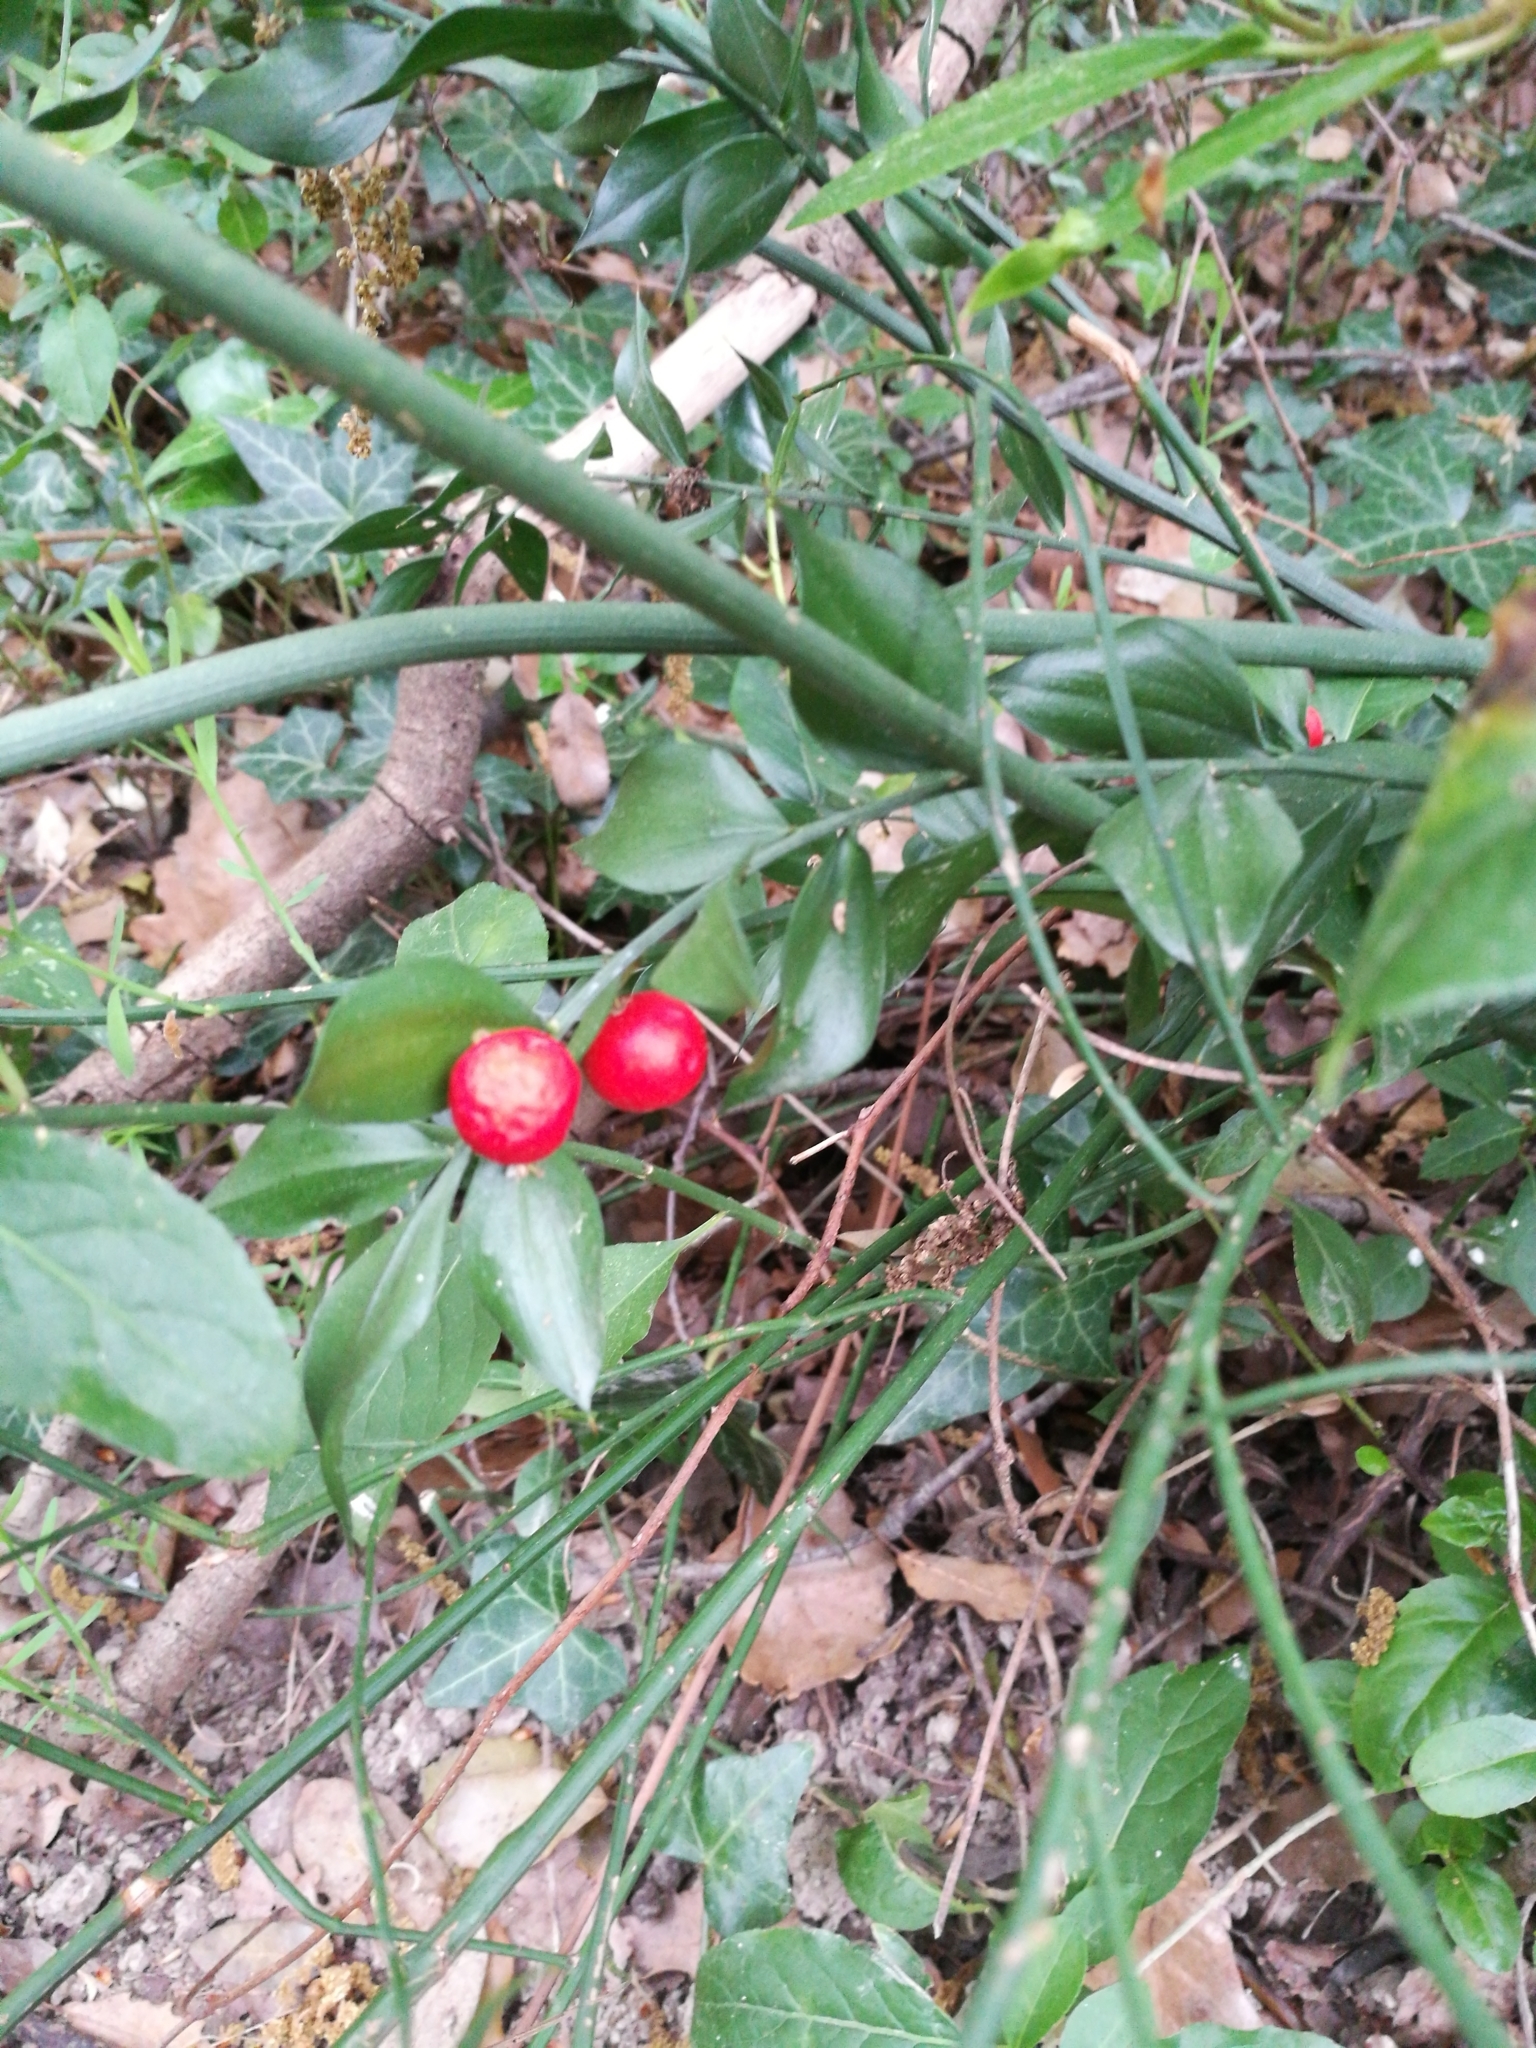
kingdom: Plantae
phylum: Tracheophyta
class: Liliopsida
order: Asparagales
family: Asparagaceae
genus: Ruscus
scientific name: Ruscus aculeatus
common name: Butcher's-broom
